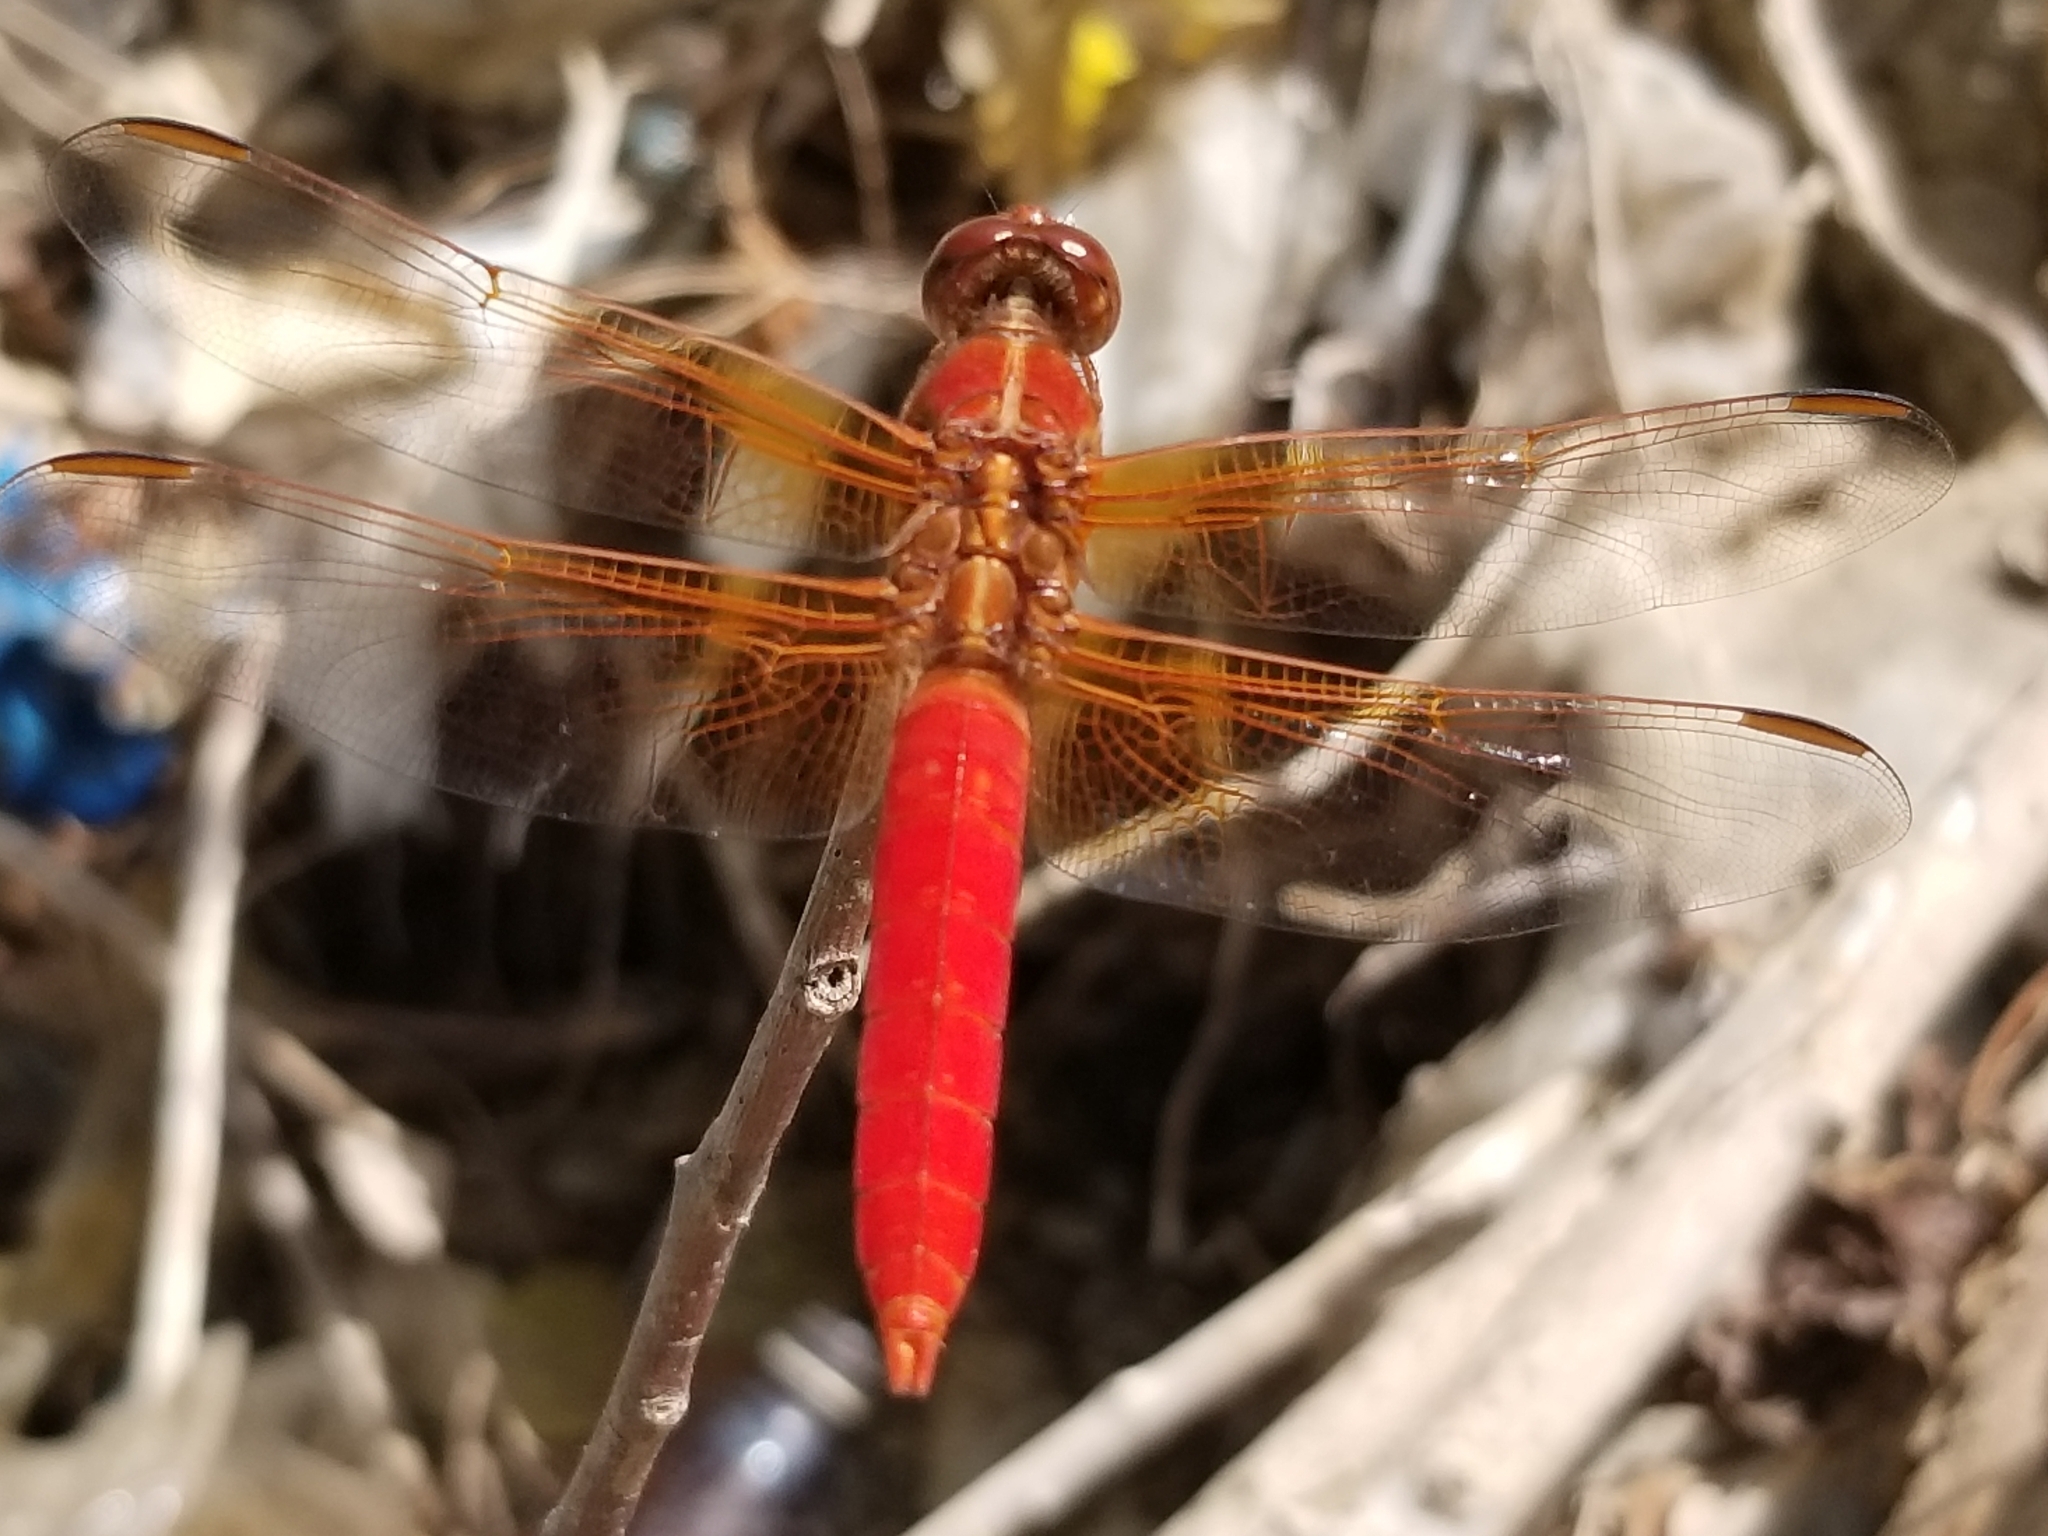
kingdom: Animalia
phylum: Arthropoda
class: Insecta
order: Odonata
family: Libellulidae
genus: Libellula
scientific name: Libellula croceipennis
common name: Neon skimmer
